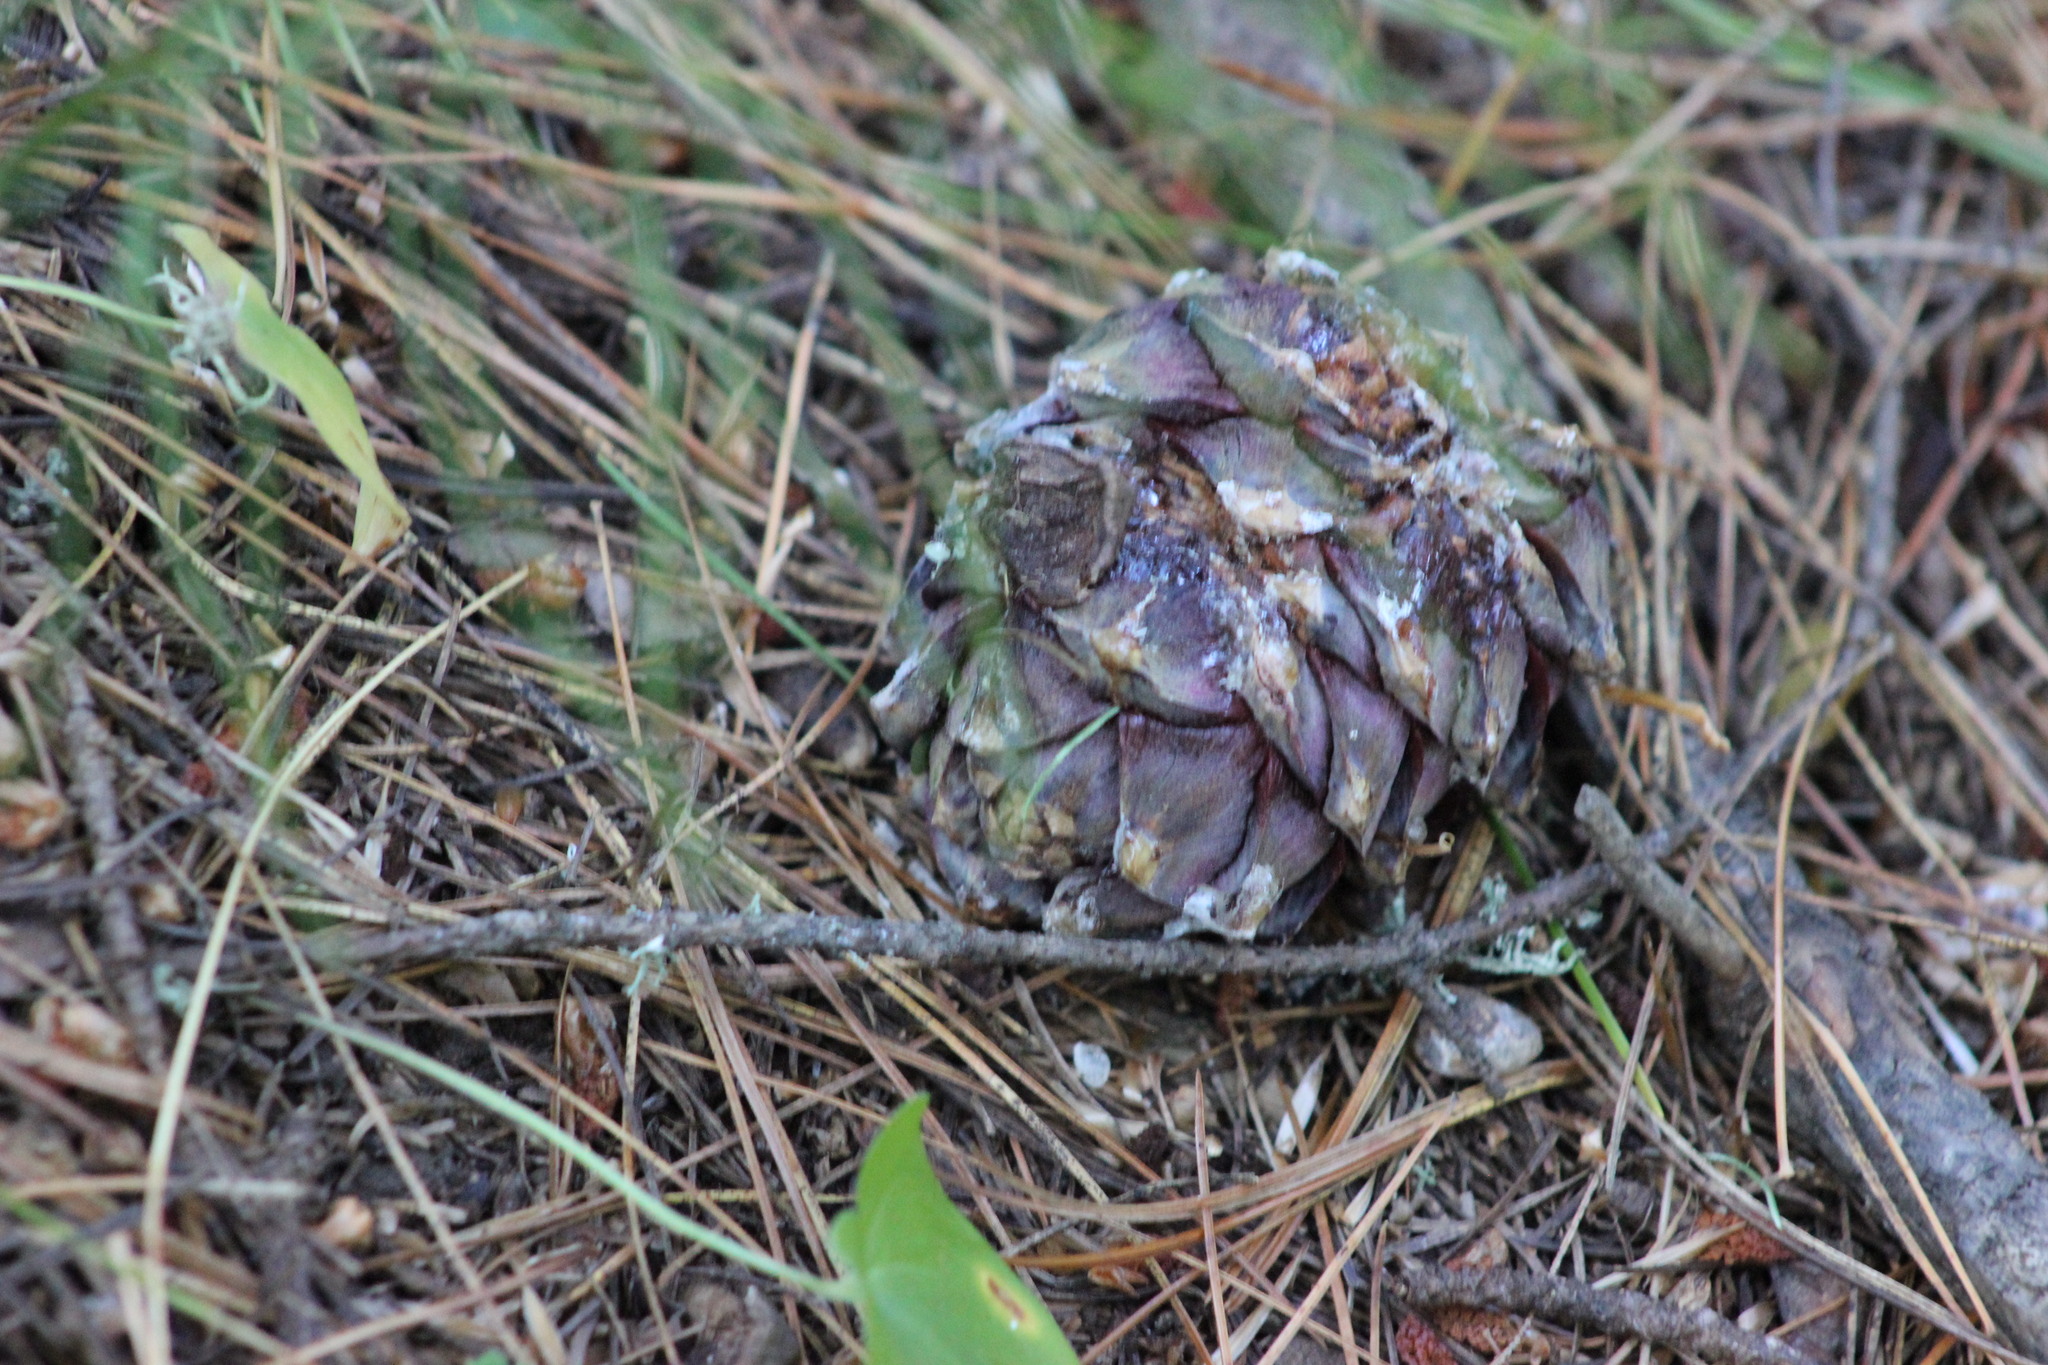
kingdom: Plantae
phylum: Tracheophyta
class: Pinopsida
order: Pinales
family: Pinaceae
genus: Pinus
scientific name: Pinus sibirica
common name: Siberian pine
